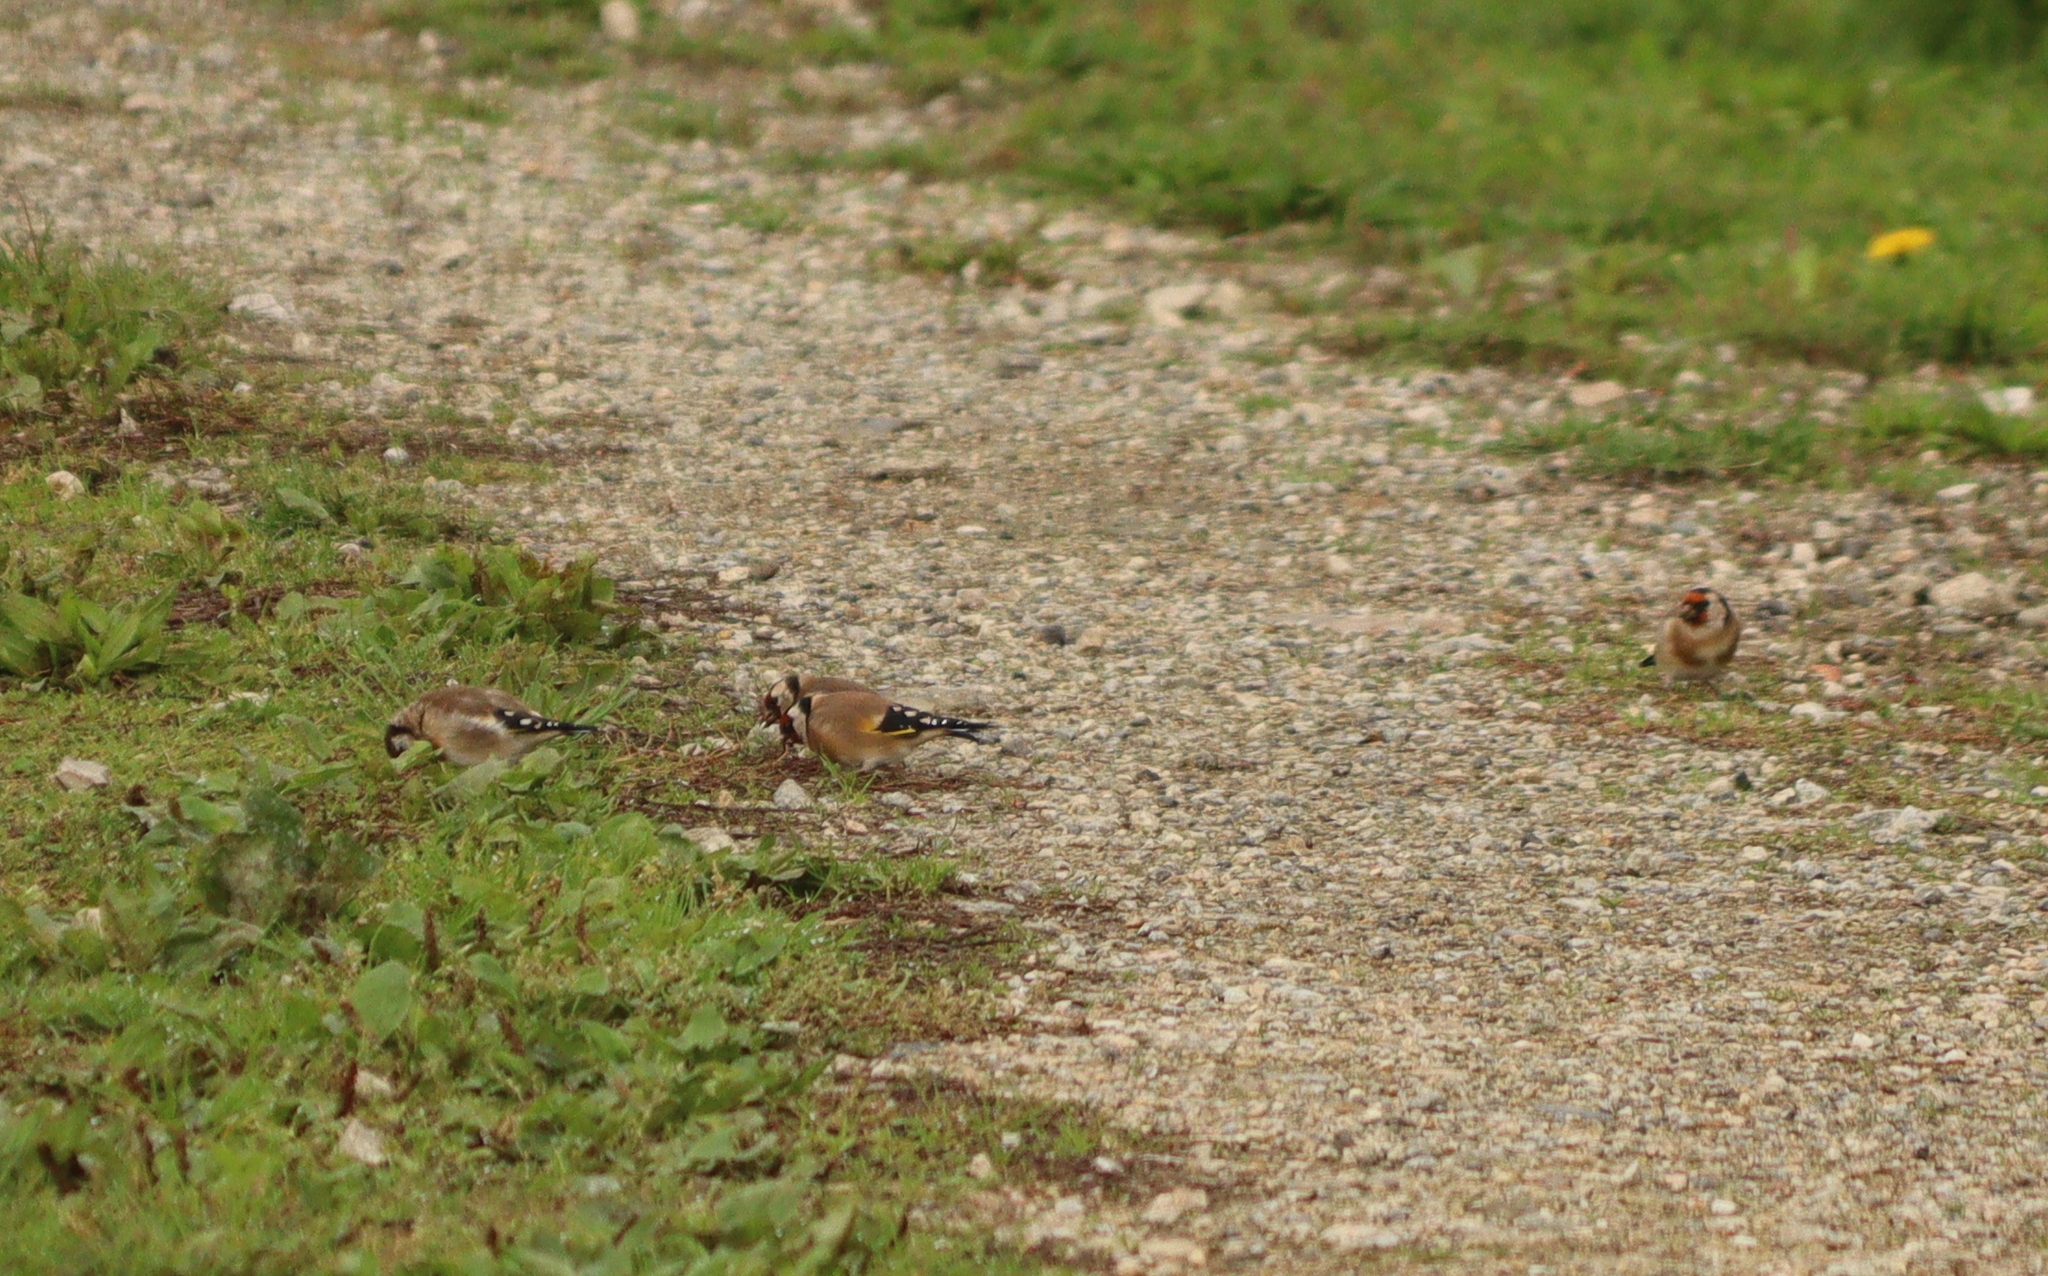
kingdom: Animalia
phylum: Chordata
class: Aves
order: Passeriformes
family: Fringillidae
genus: Carduelis
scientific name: Carduelis carduelis
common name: European goldfinch
